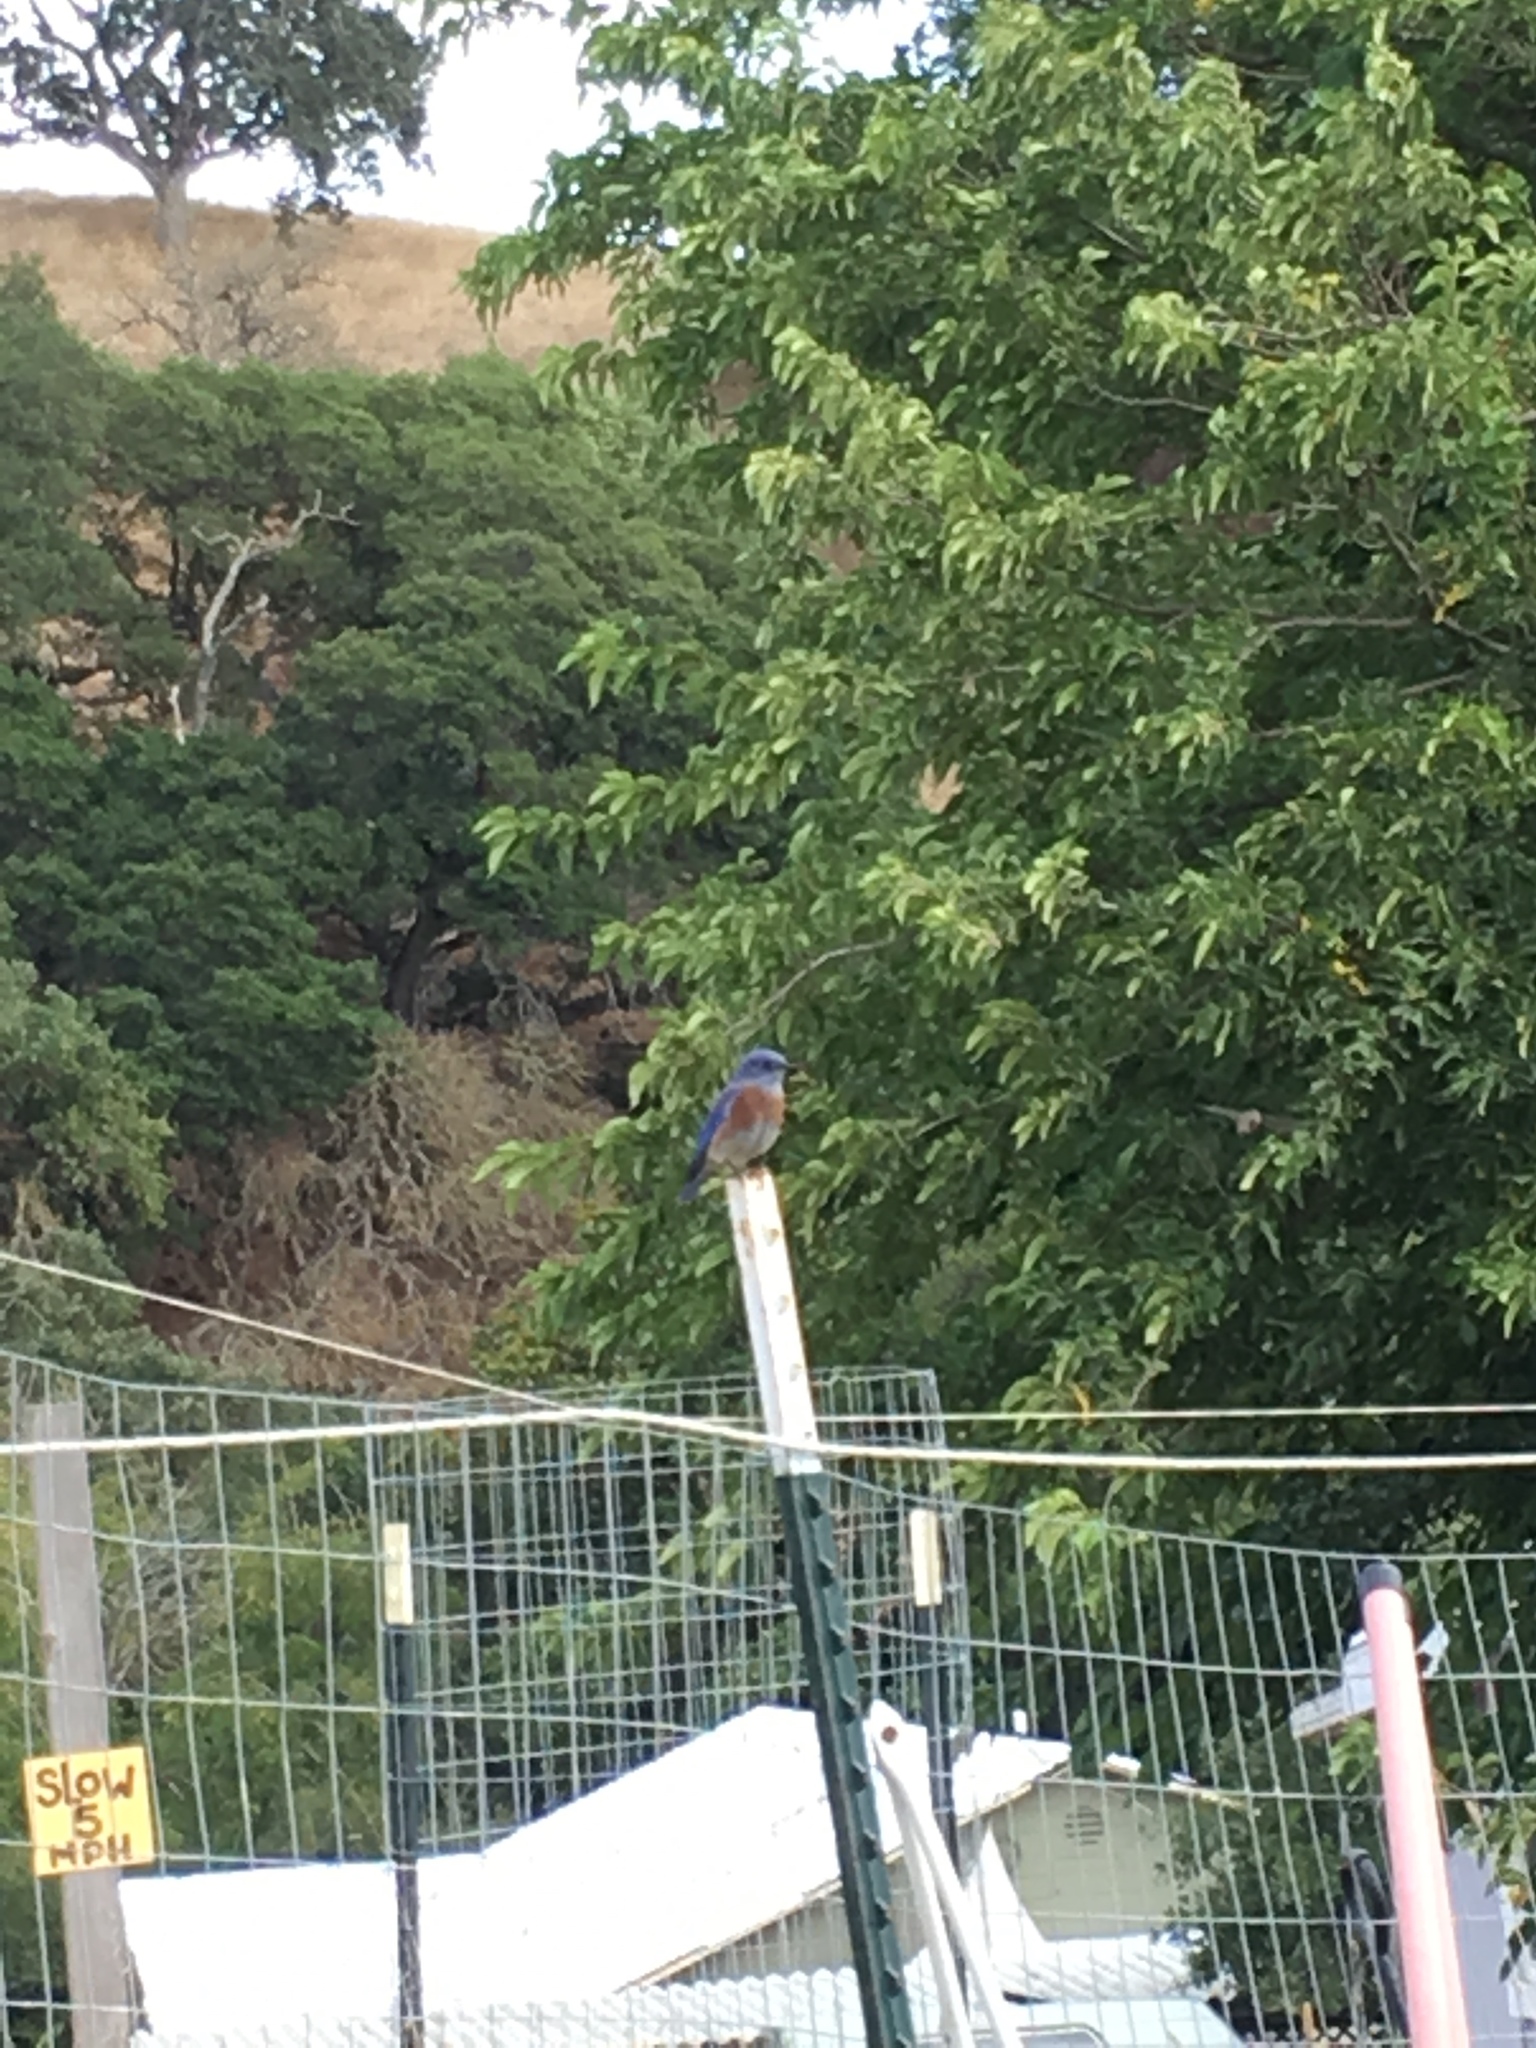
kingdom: Animalia
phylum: Chordata
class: Aves
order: Passeriformes
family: Turdidae
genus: Sialia
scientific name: Sialia mexicana
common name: Western bluebird
